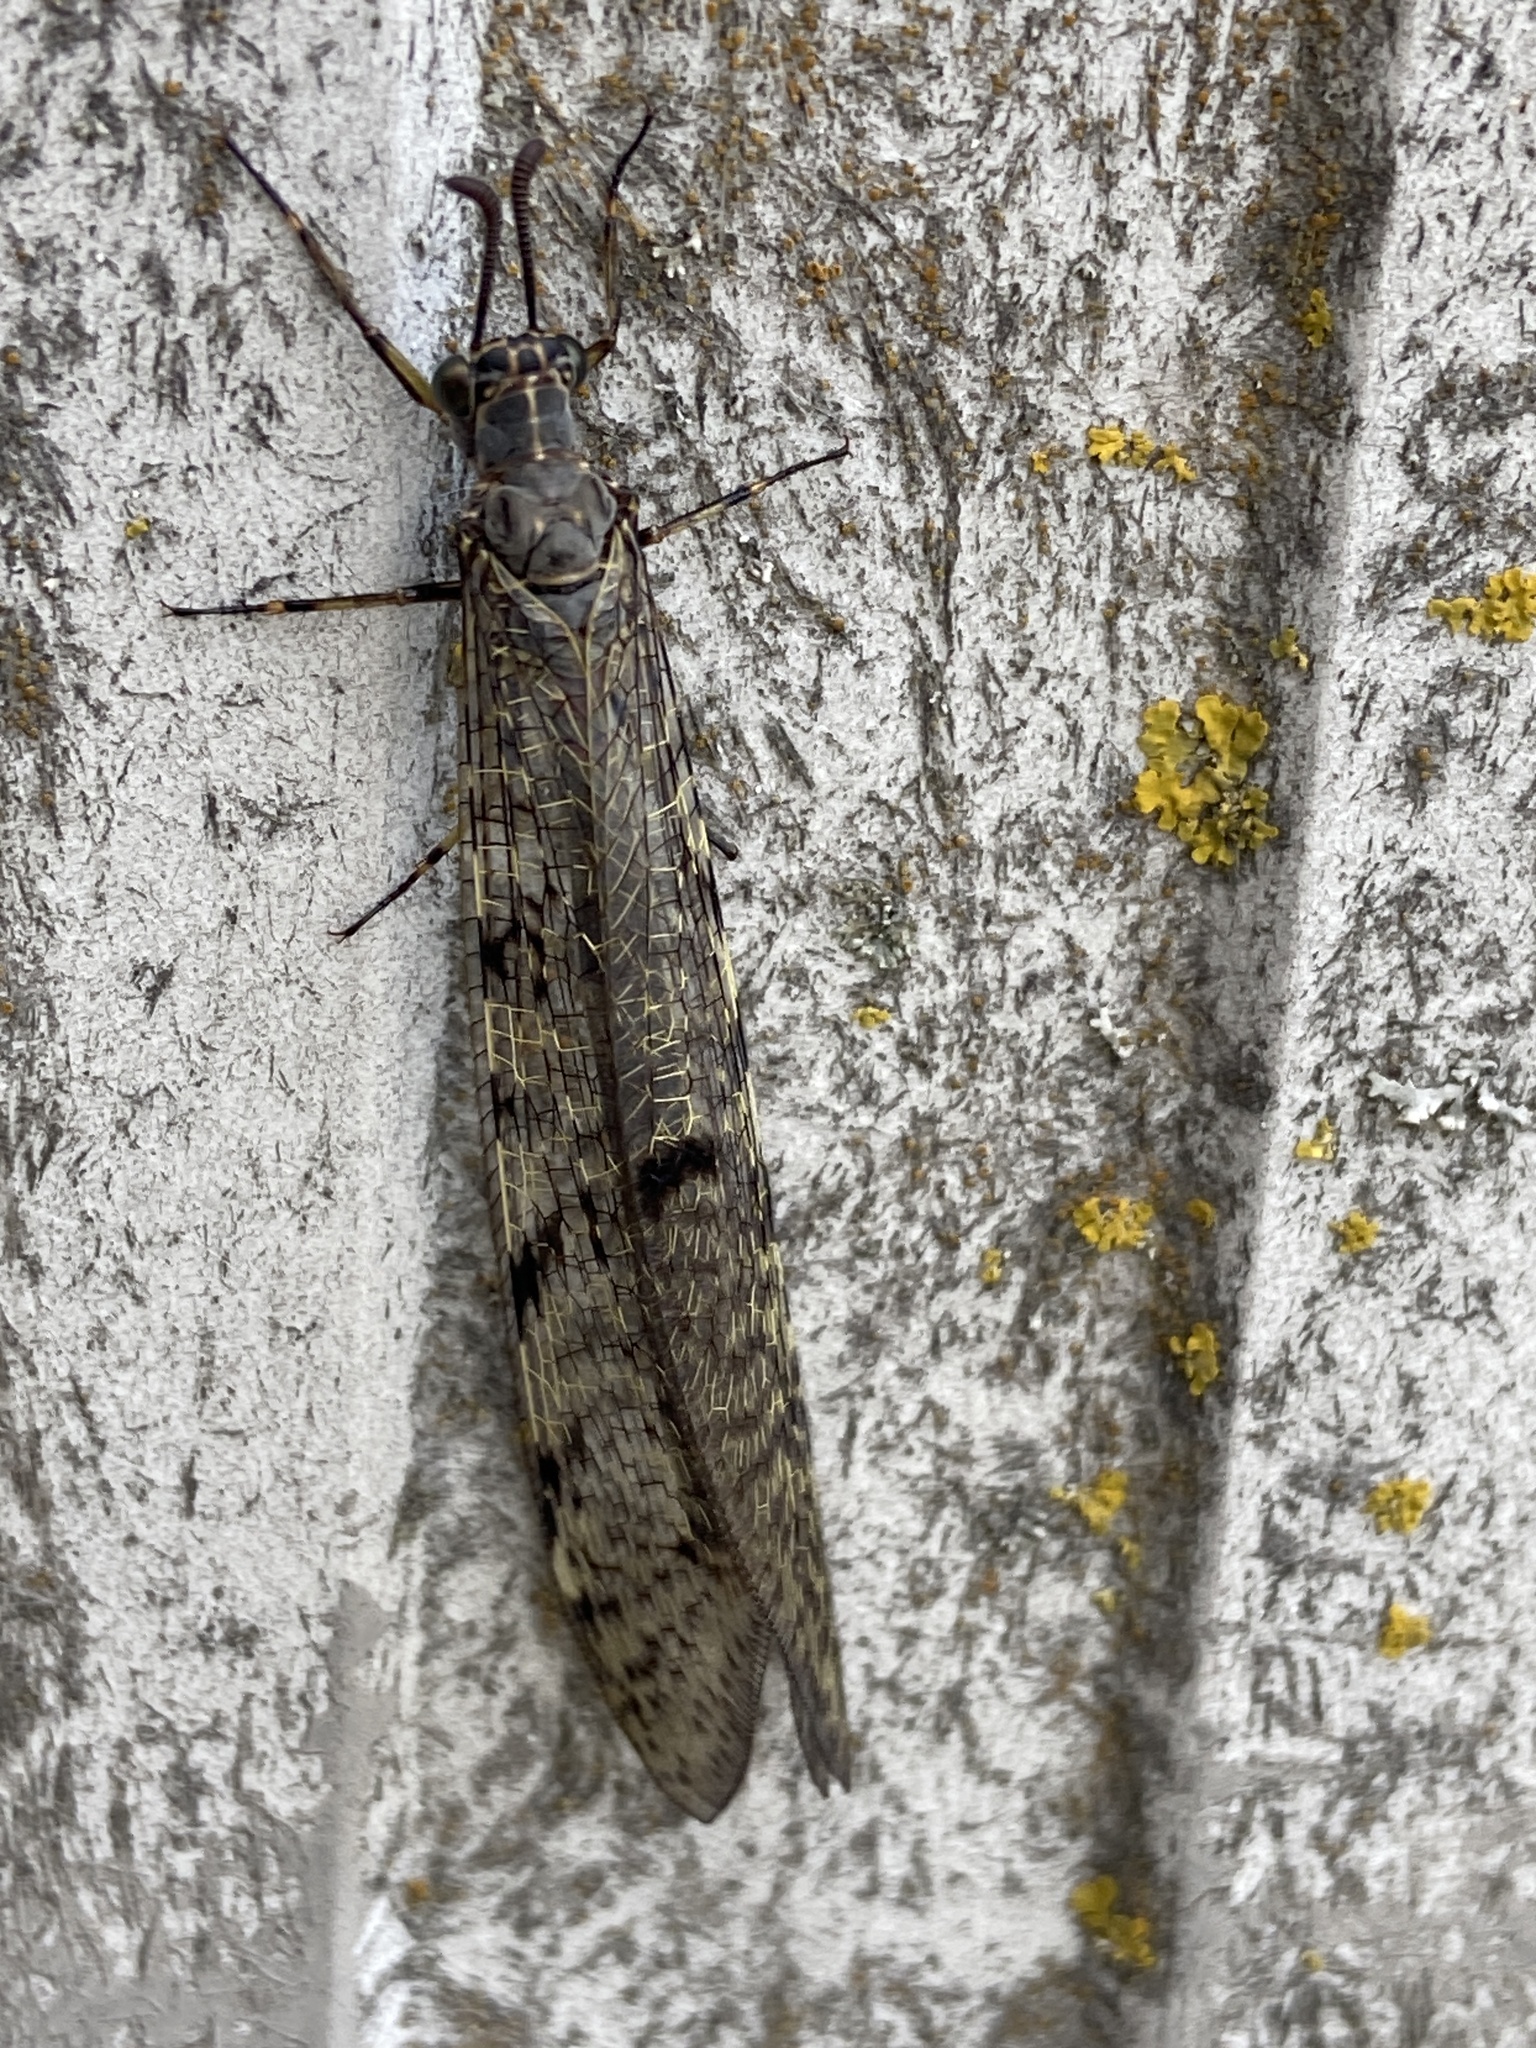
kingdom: Animalia
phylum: Arthropoda
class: Insecta
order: Neuroptera
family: Myrmeleontidae
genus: Euroleon
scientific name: Euroleon nostras
